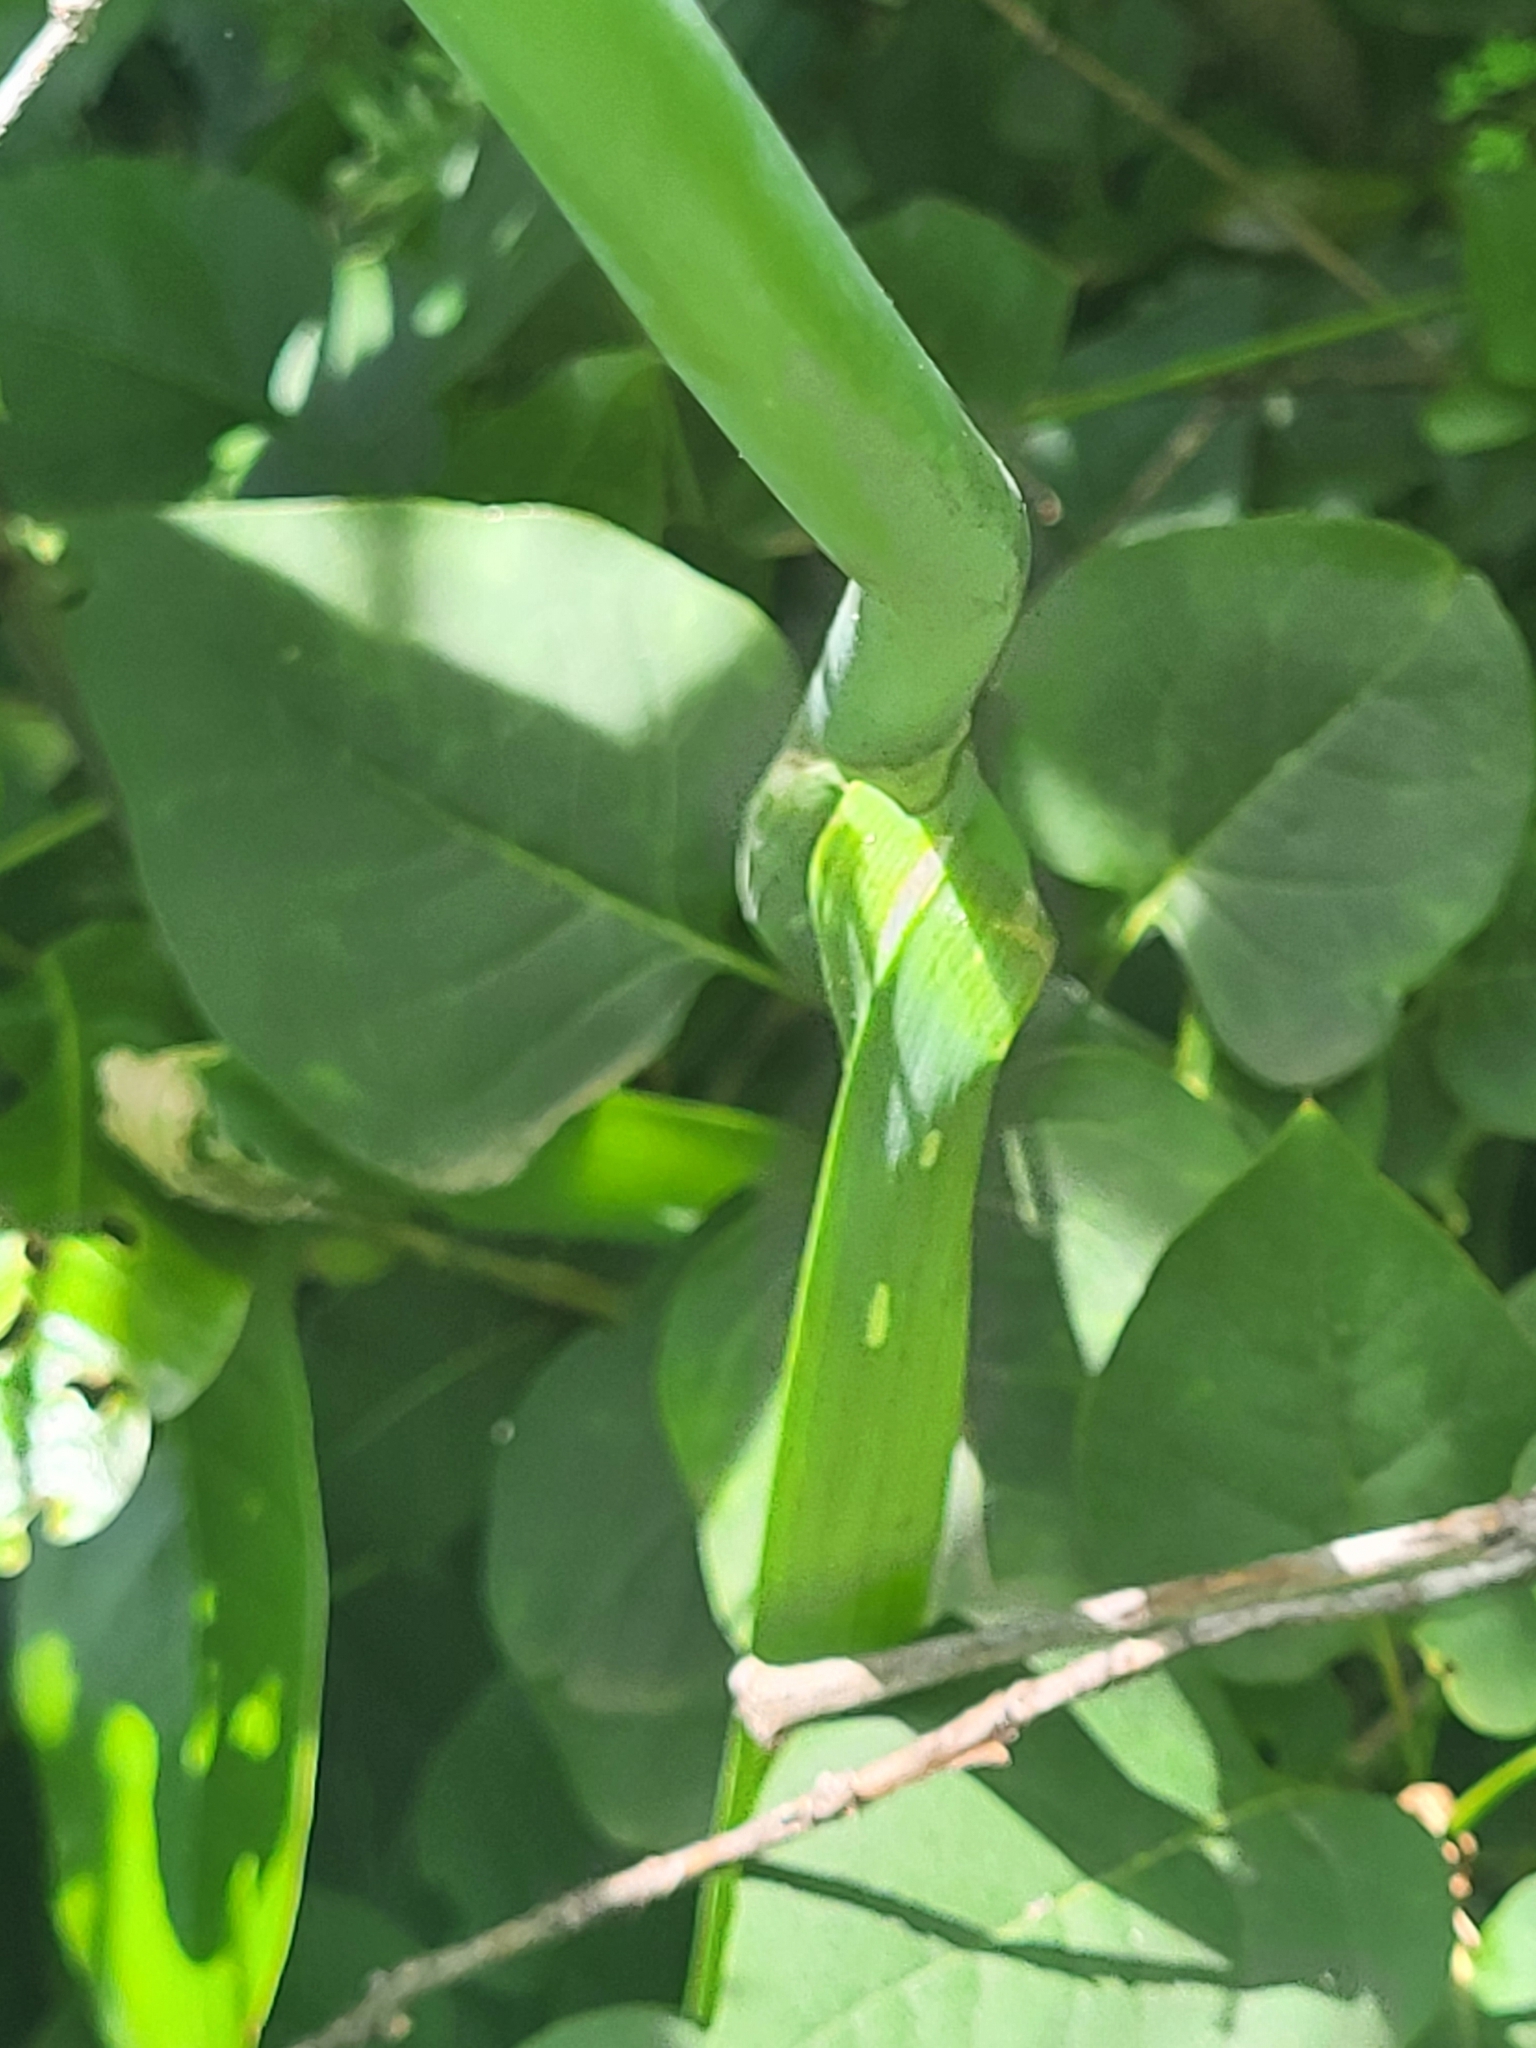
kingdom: Plantae
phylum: Tracheophyta
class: Liliopsida
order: Asparagales
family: Amaryllidaceae
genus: Allium
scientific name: Allium amethystinum
